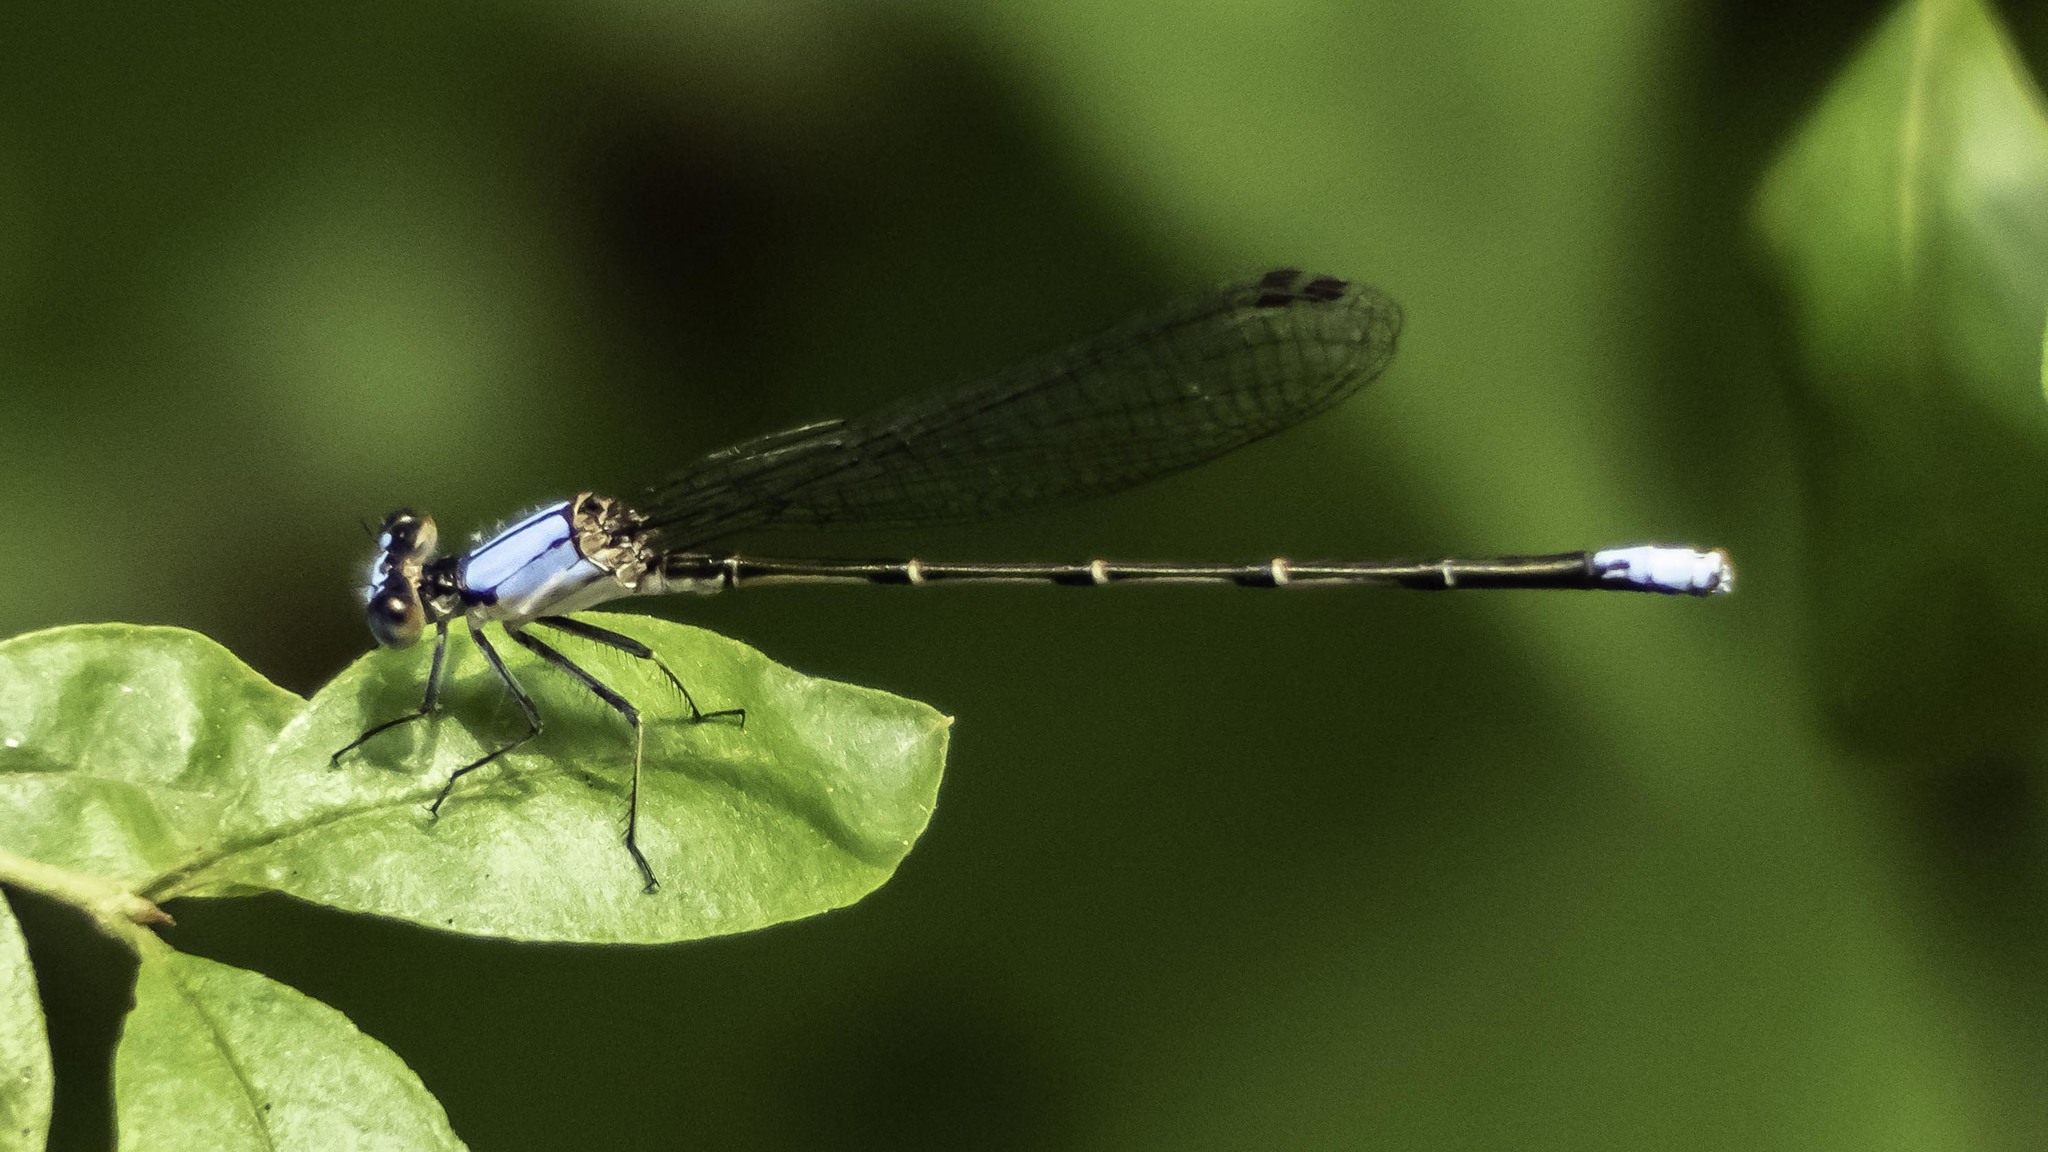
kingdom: Animalia
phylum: Arthropoda
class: Insecta
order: Odonata
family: Coenagrionidae
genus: Argia
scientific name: Argia apicalis
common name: Blue-fronted dancer
